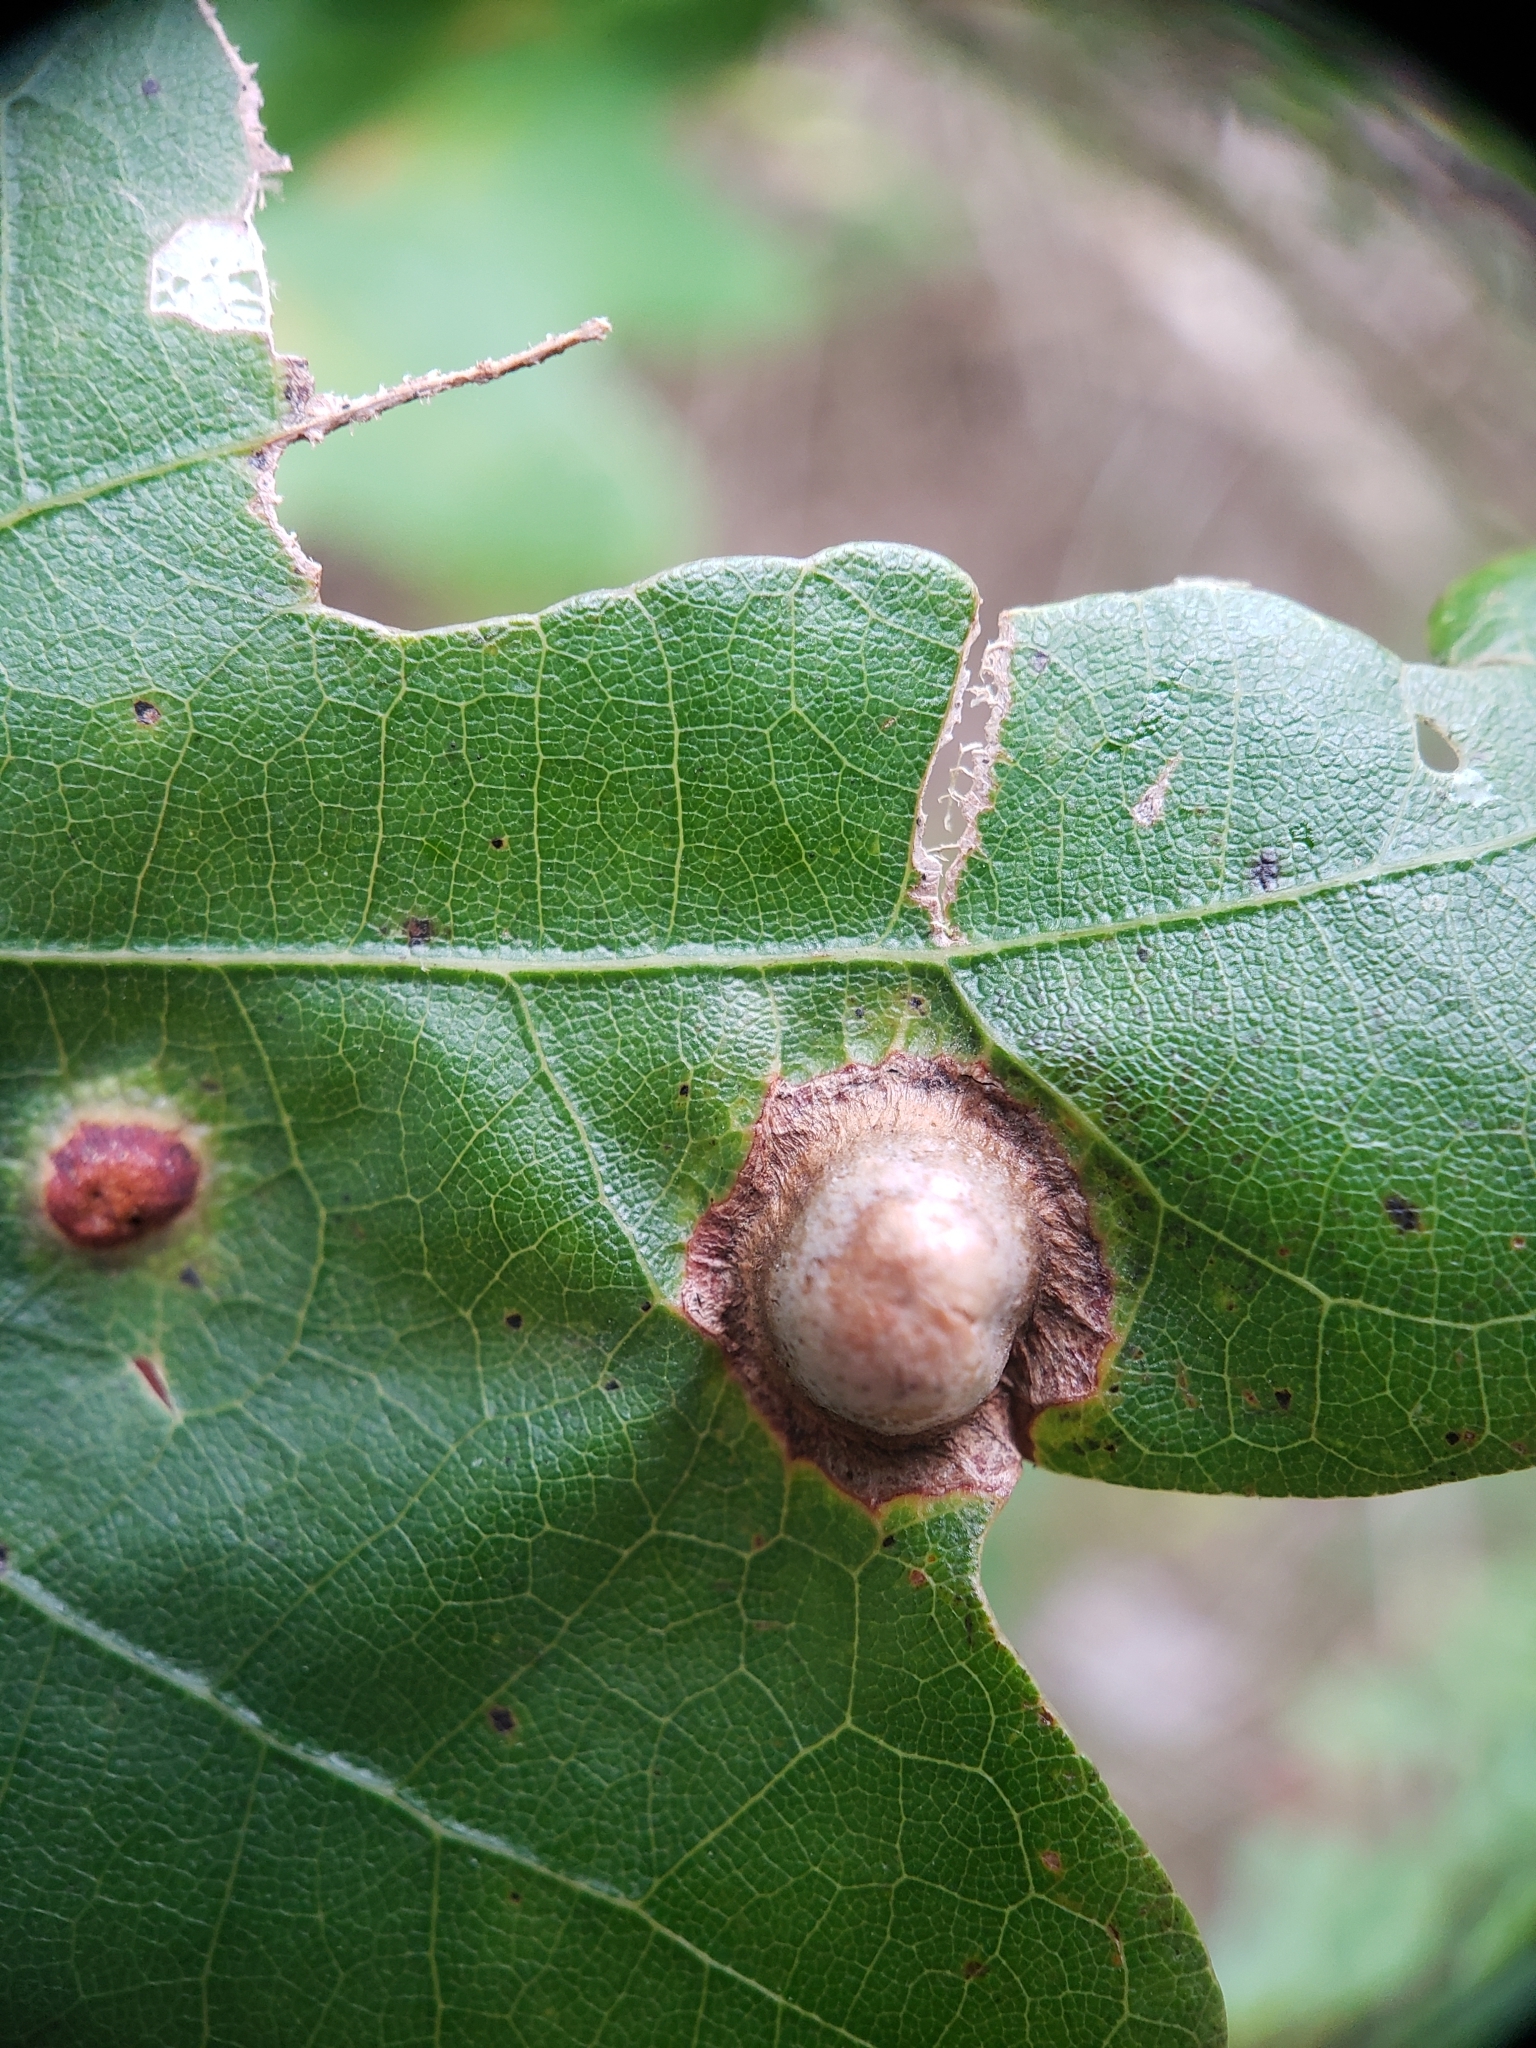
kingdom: Animalia
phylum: Arthropoda
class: Insecta
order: Hymenoptera
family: Cynipidae
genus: Callirhytis
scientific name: Callirhytis
